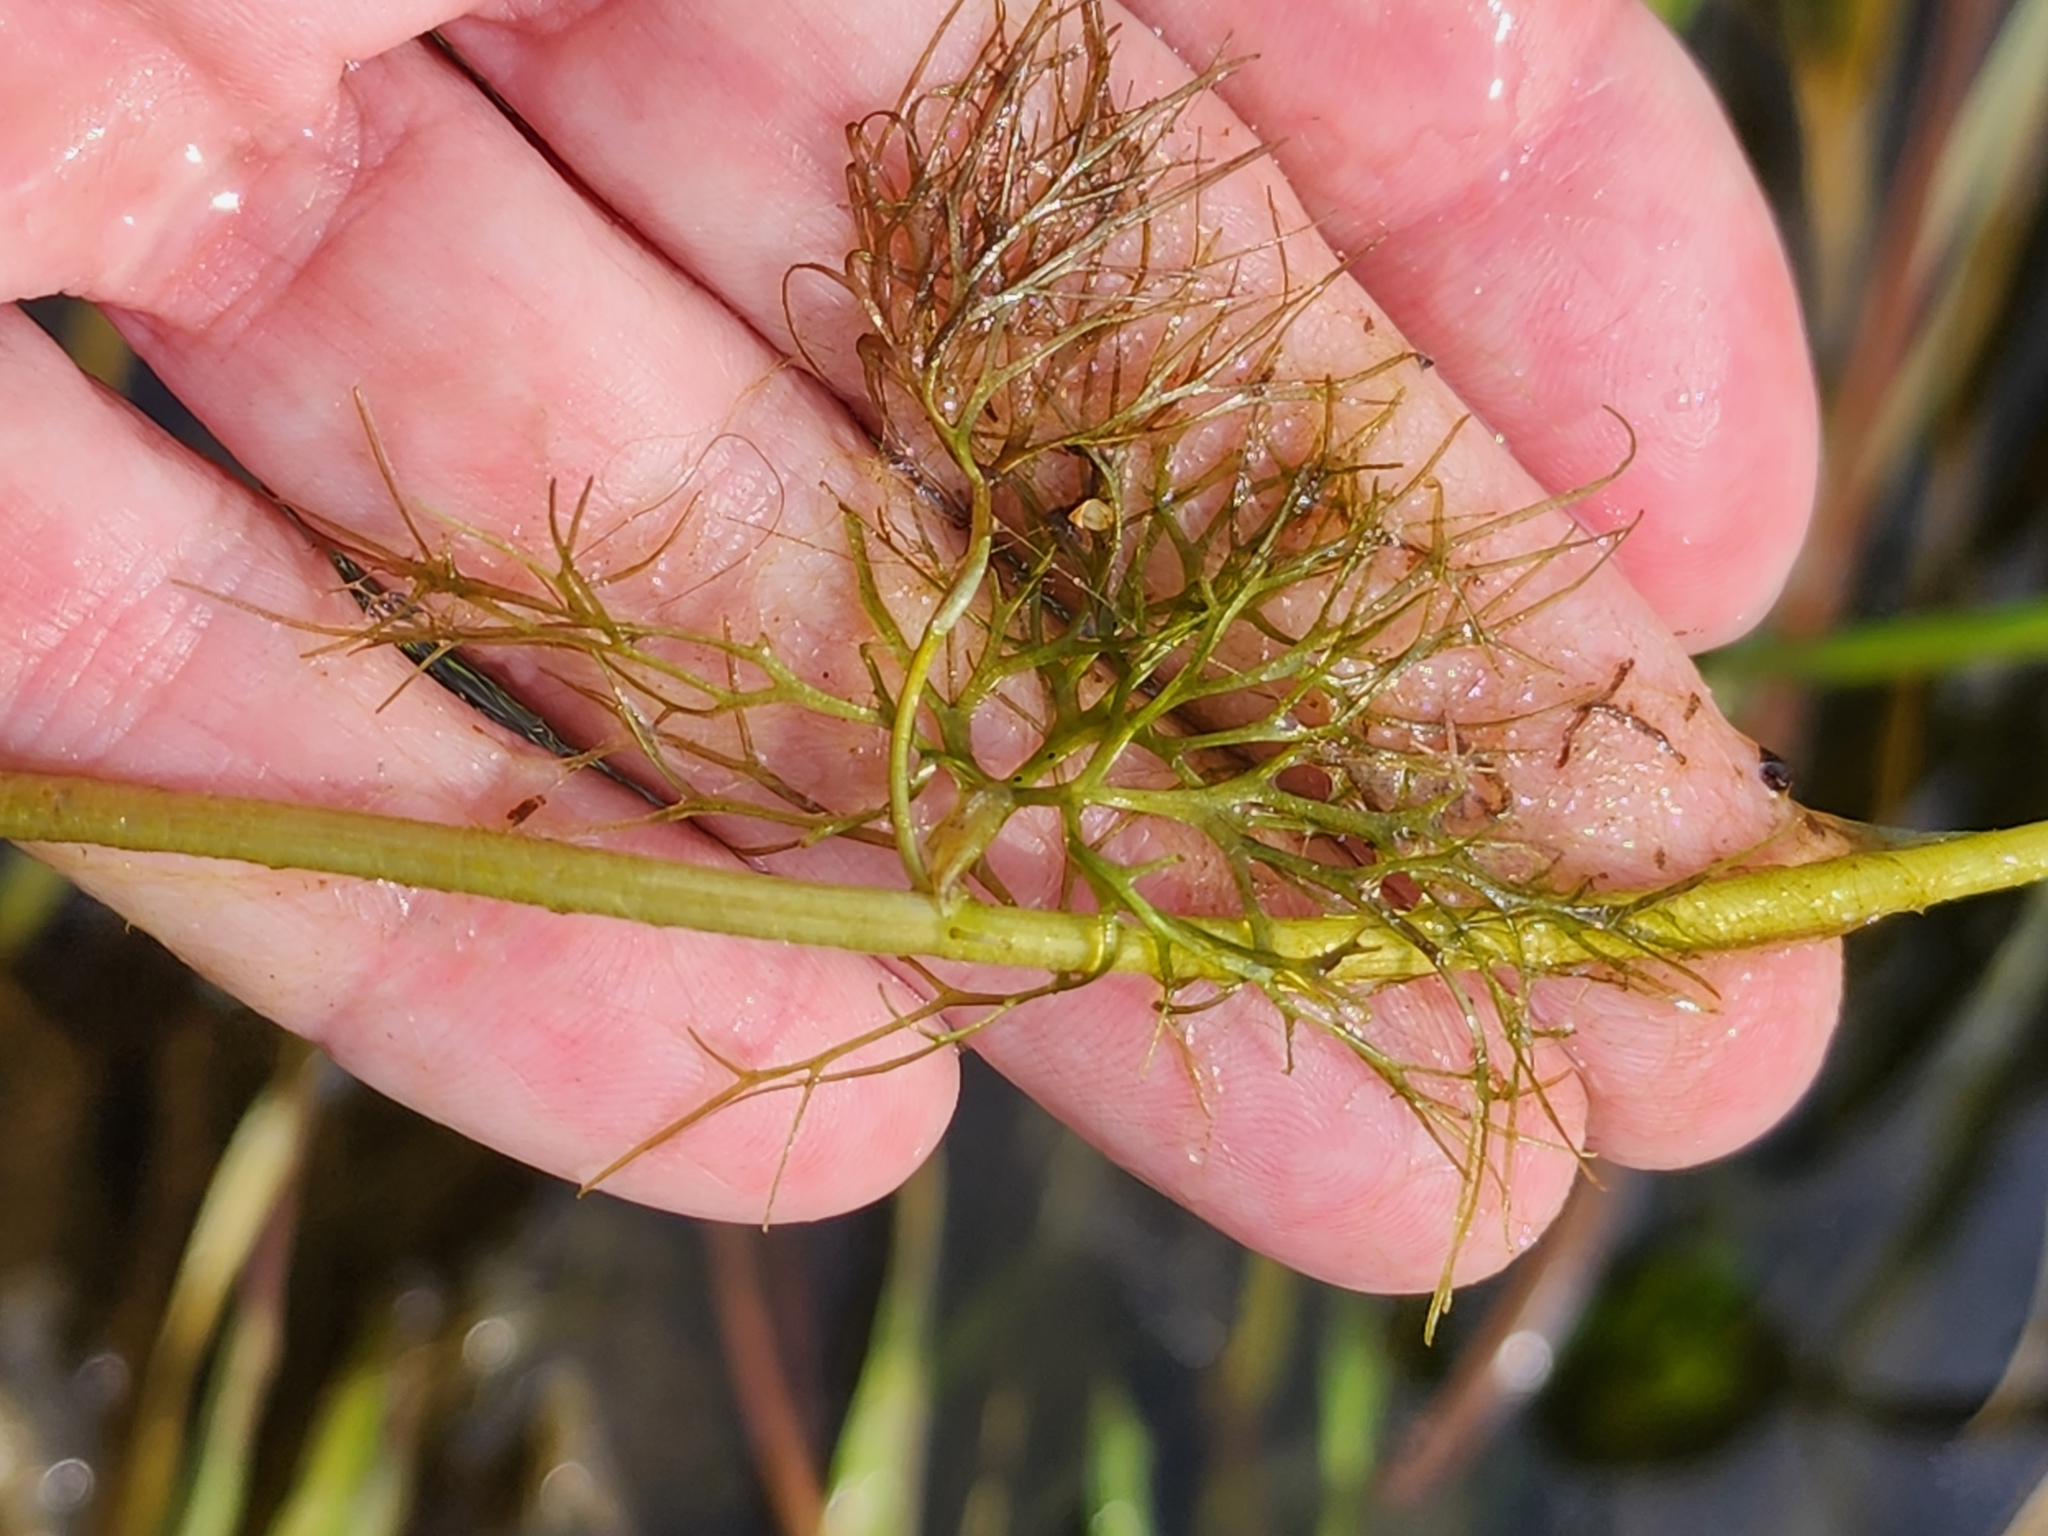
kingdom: Plantae
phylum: Tracheophyta
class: Magnoliopsida
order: Ranunculales
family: Ranunculaceae
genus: Ranunculus
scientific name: Ranunculus flabellaris
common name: Yellow water-crowfoot
